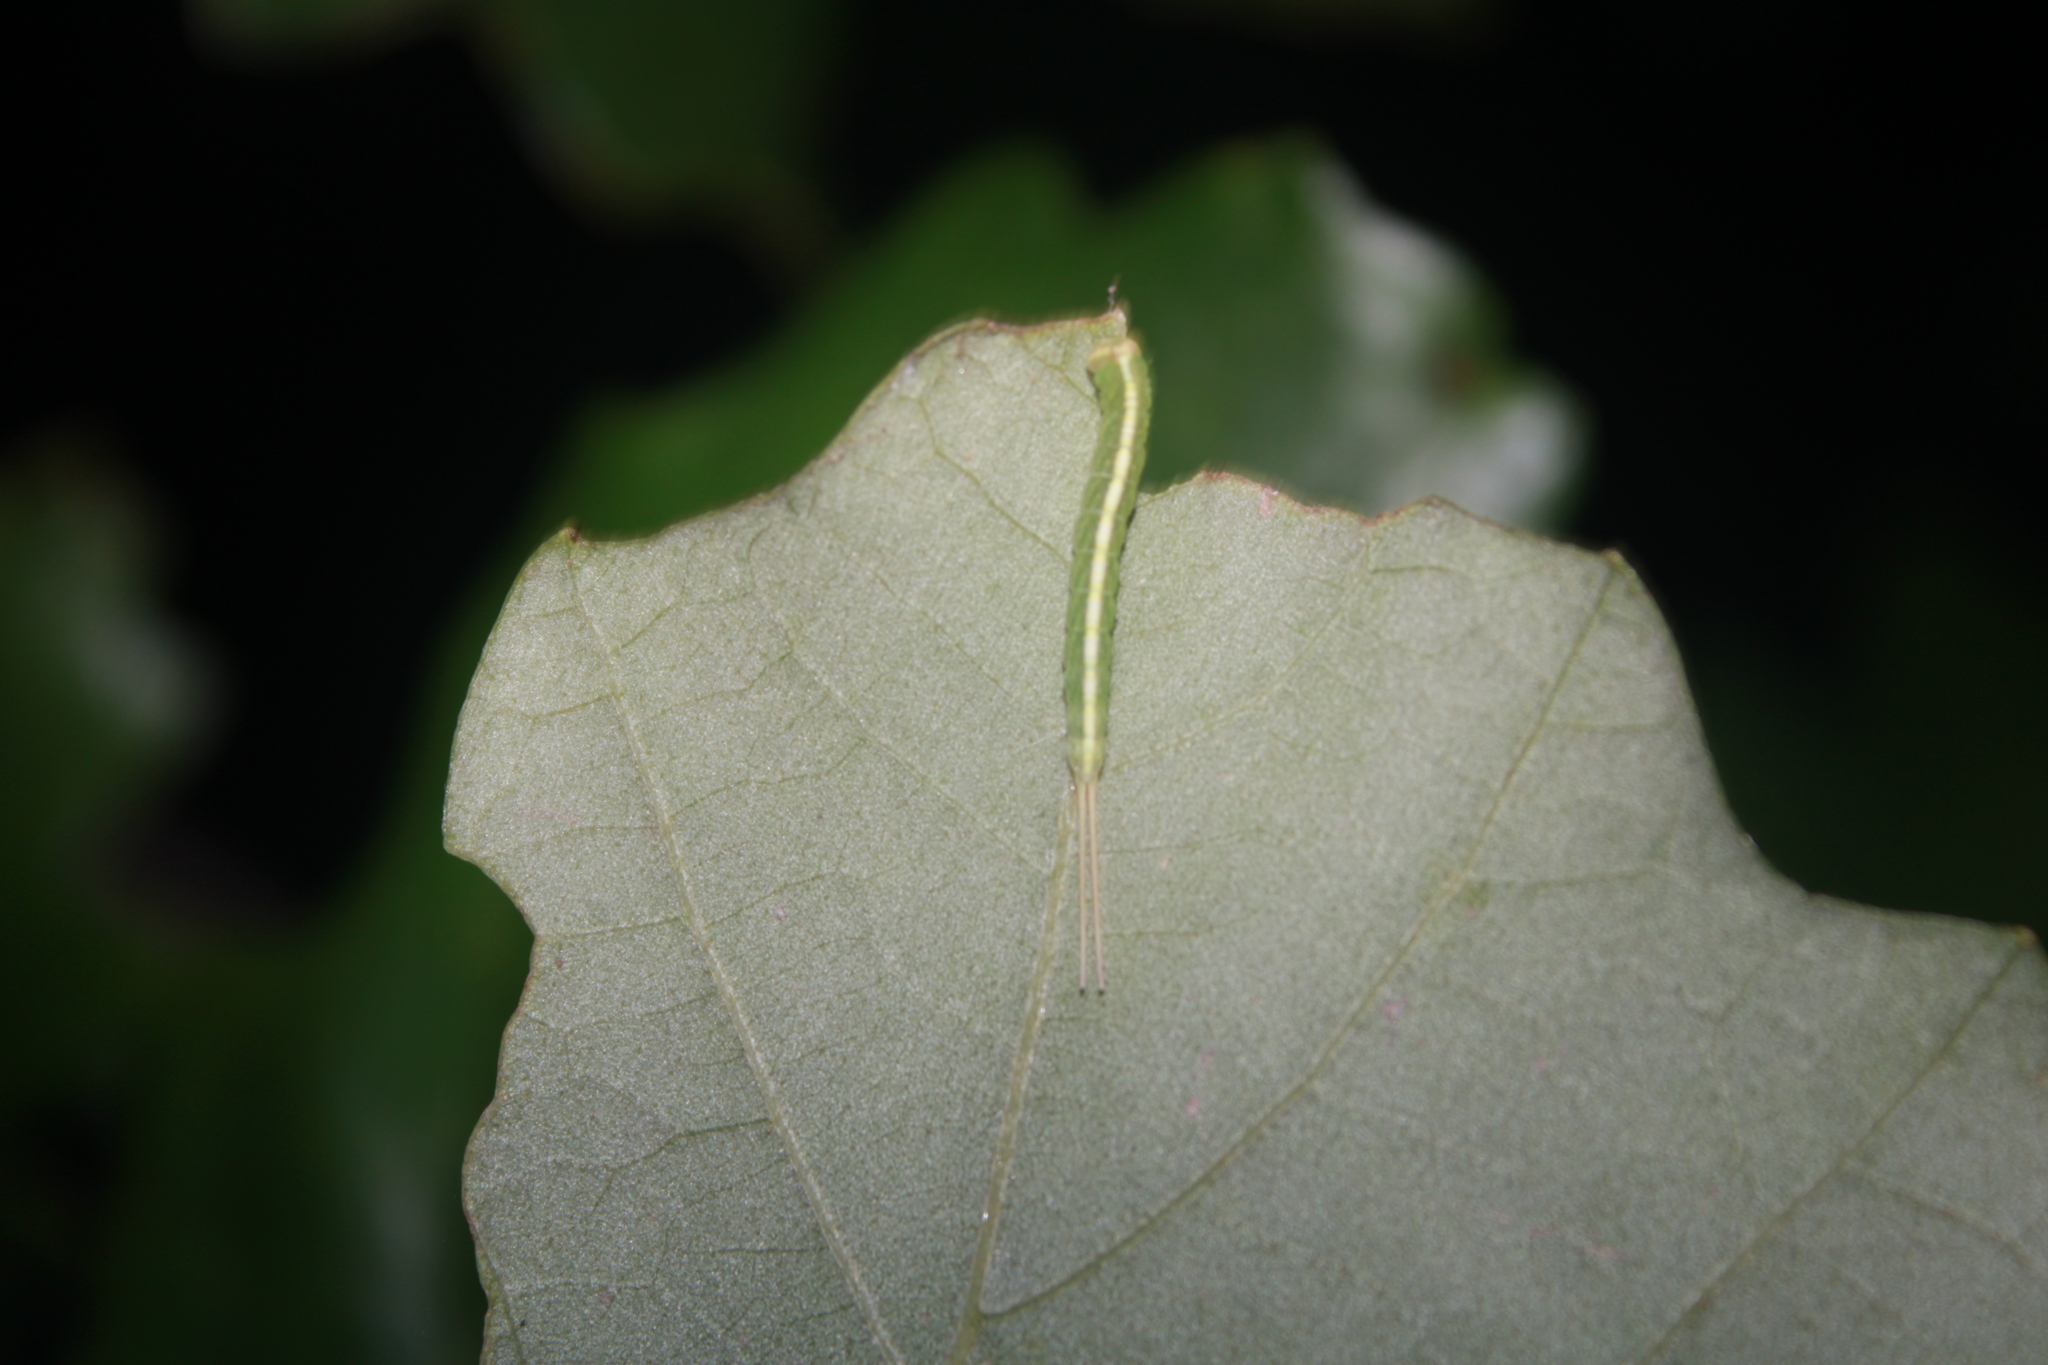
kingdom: Animalia
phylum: Arthropoda
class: Insecta
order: Lepidoptera
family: Notodontidae
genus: Macrurocampa
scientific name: Macrurocampa marthesia
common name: Mottled prominent
